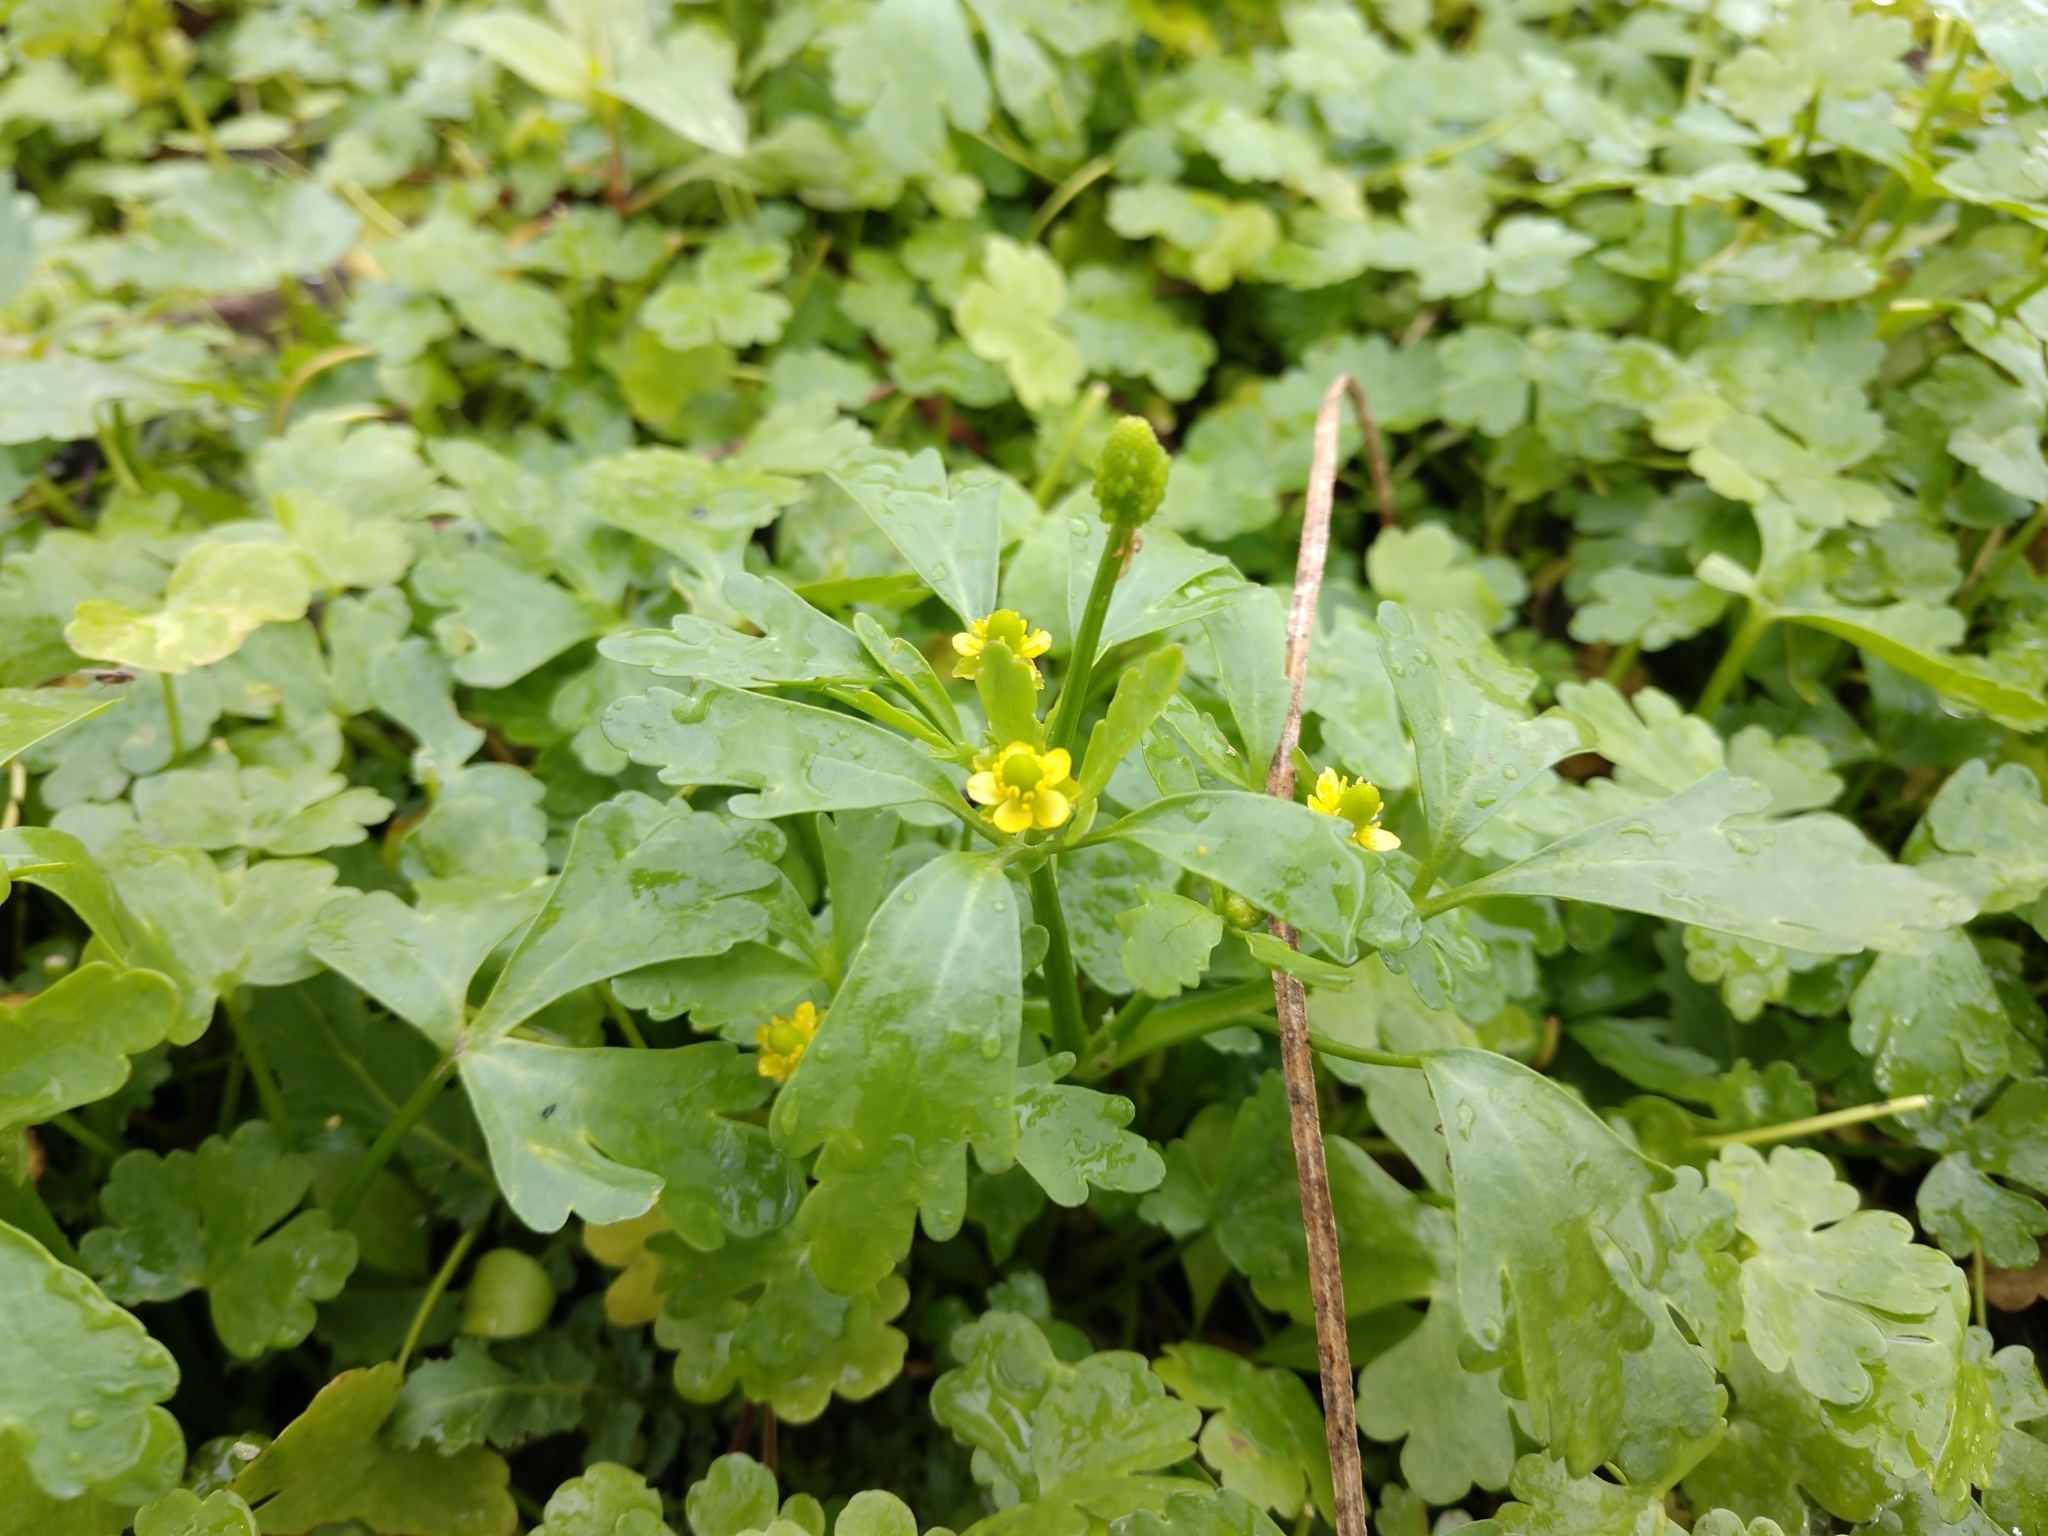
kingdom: Plantae
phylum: Tracheophyta
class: Magnoliopsida
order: Ranunculales
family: Ranunculaceae
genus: Ranunculus
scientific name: Ranunculus sceleratus
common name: Celery-leaved buttercup
